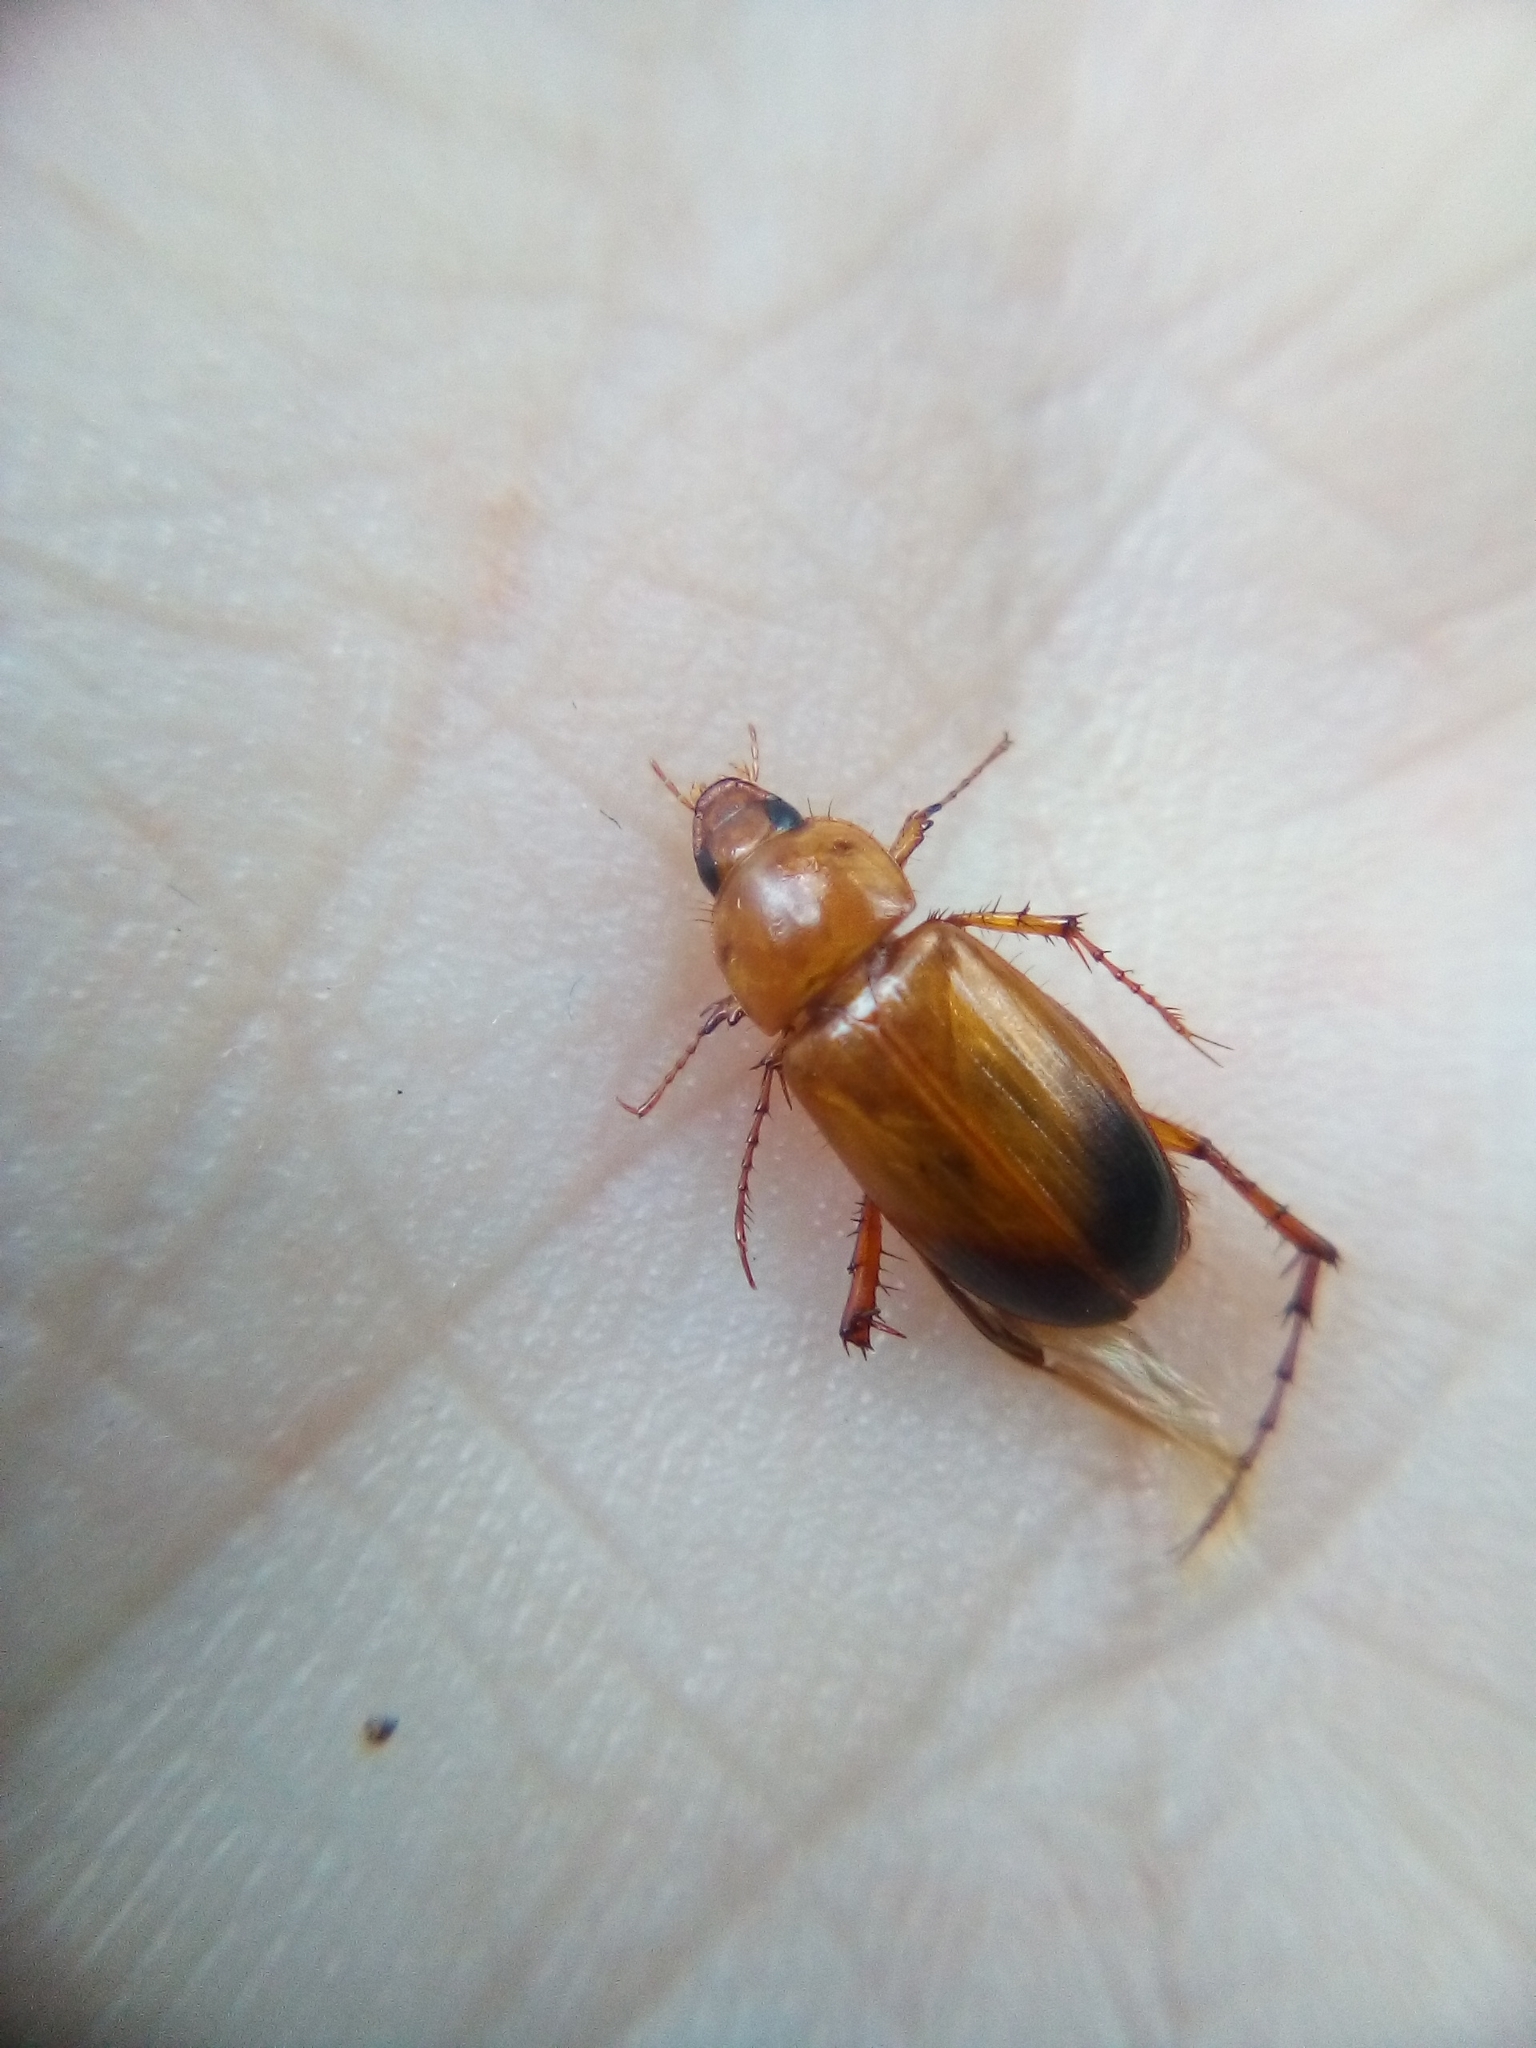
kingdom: Animalia
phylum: Arthropoda
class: Insecta
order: Coleoptera
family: Scarabaeidae
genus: Phyllotocus
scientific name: Phyllotocus macleayi
